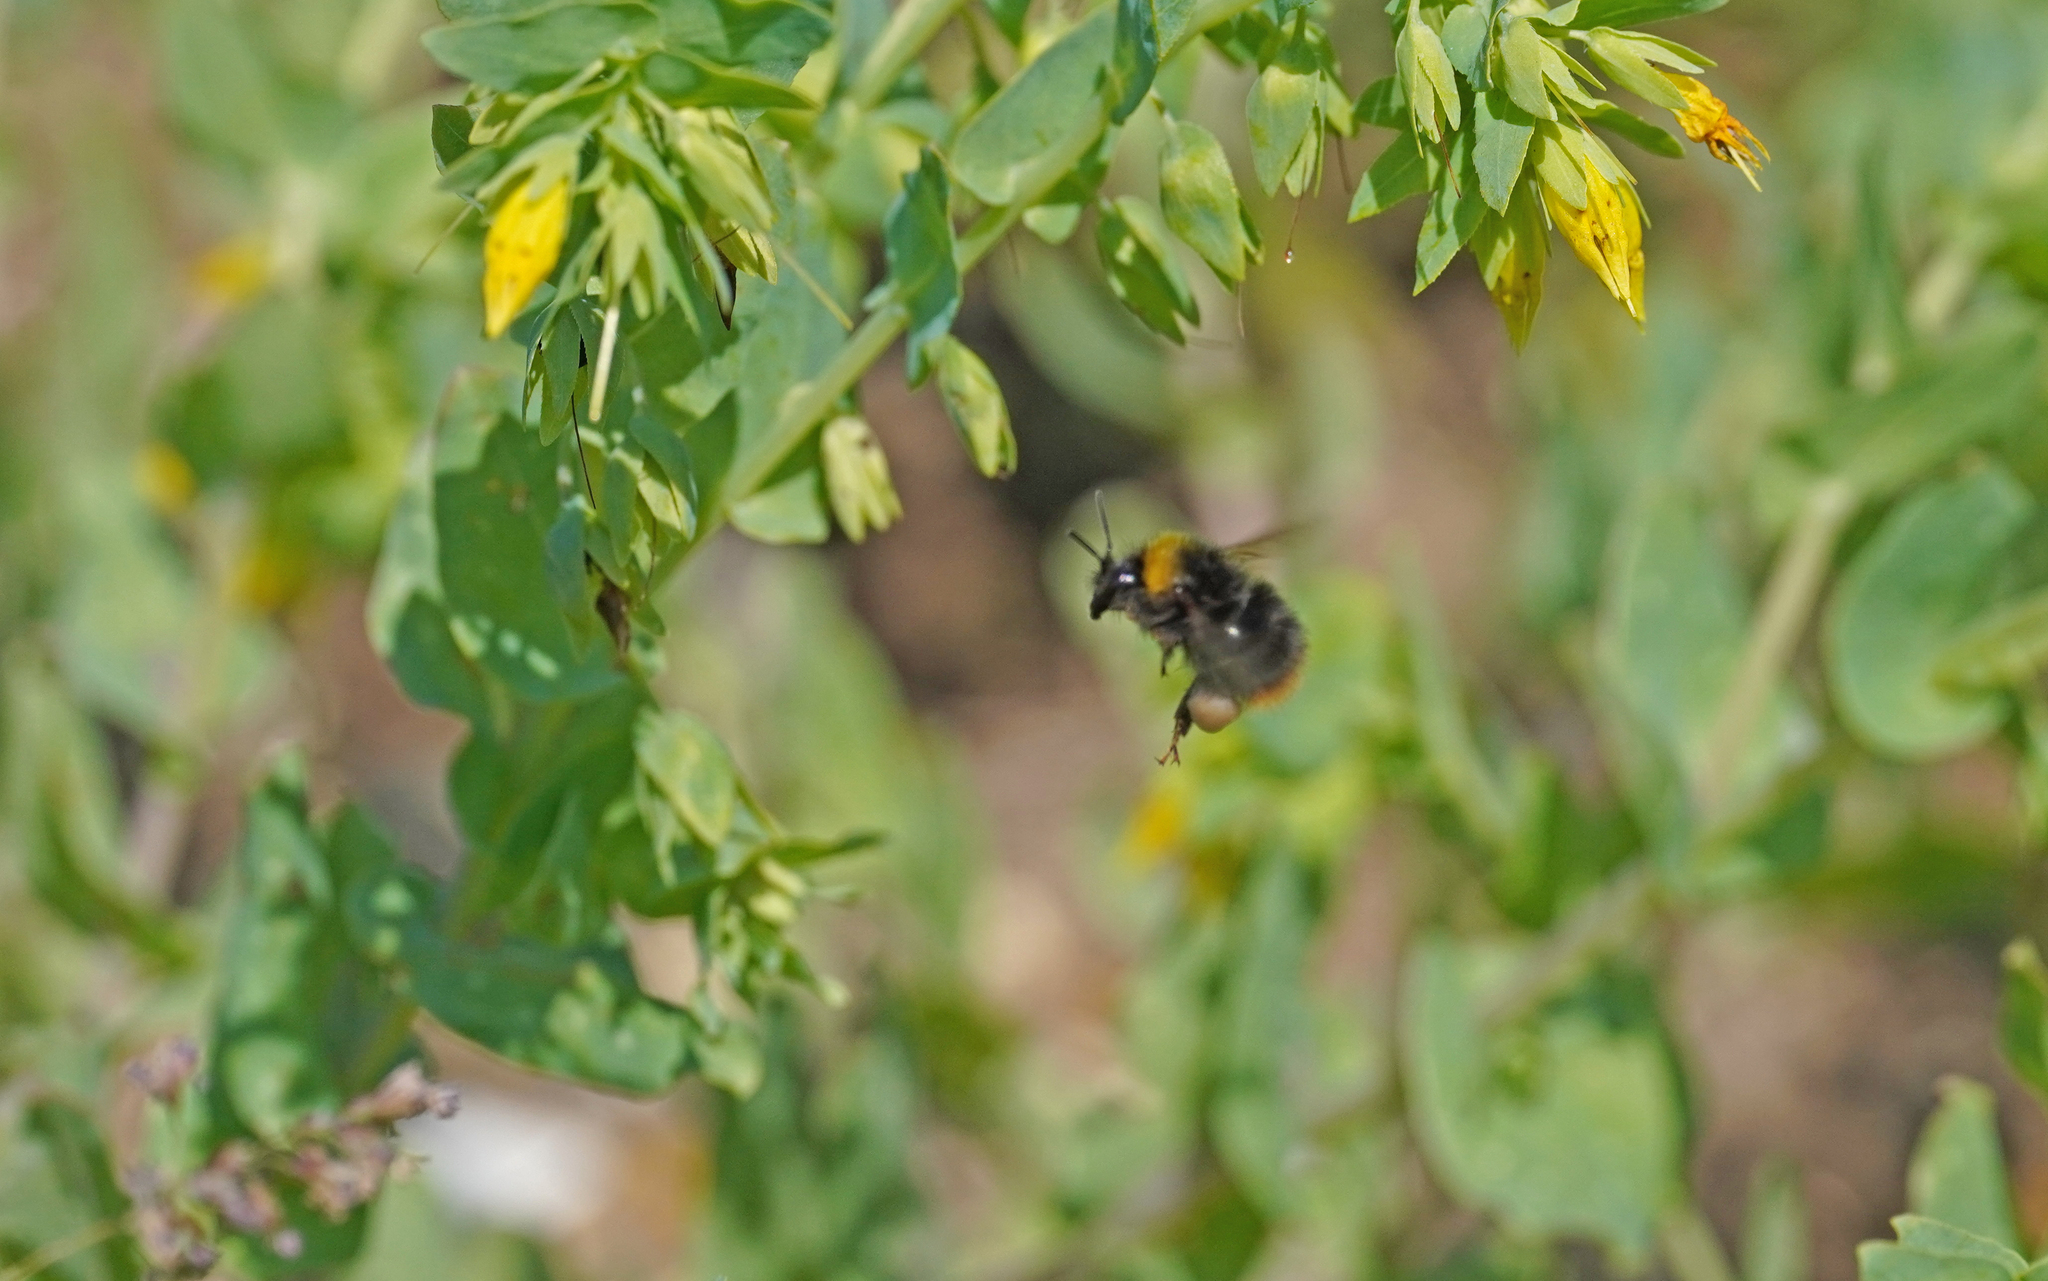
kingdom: Animalia
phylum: Arthropoda
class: Insecta
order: Hymenoptera
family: Apidae
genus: Bombus
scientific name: Bombus pratorum
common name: Early humble-bee
